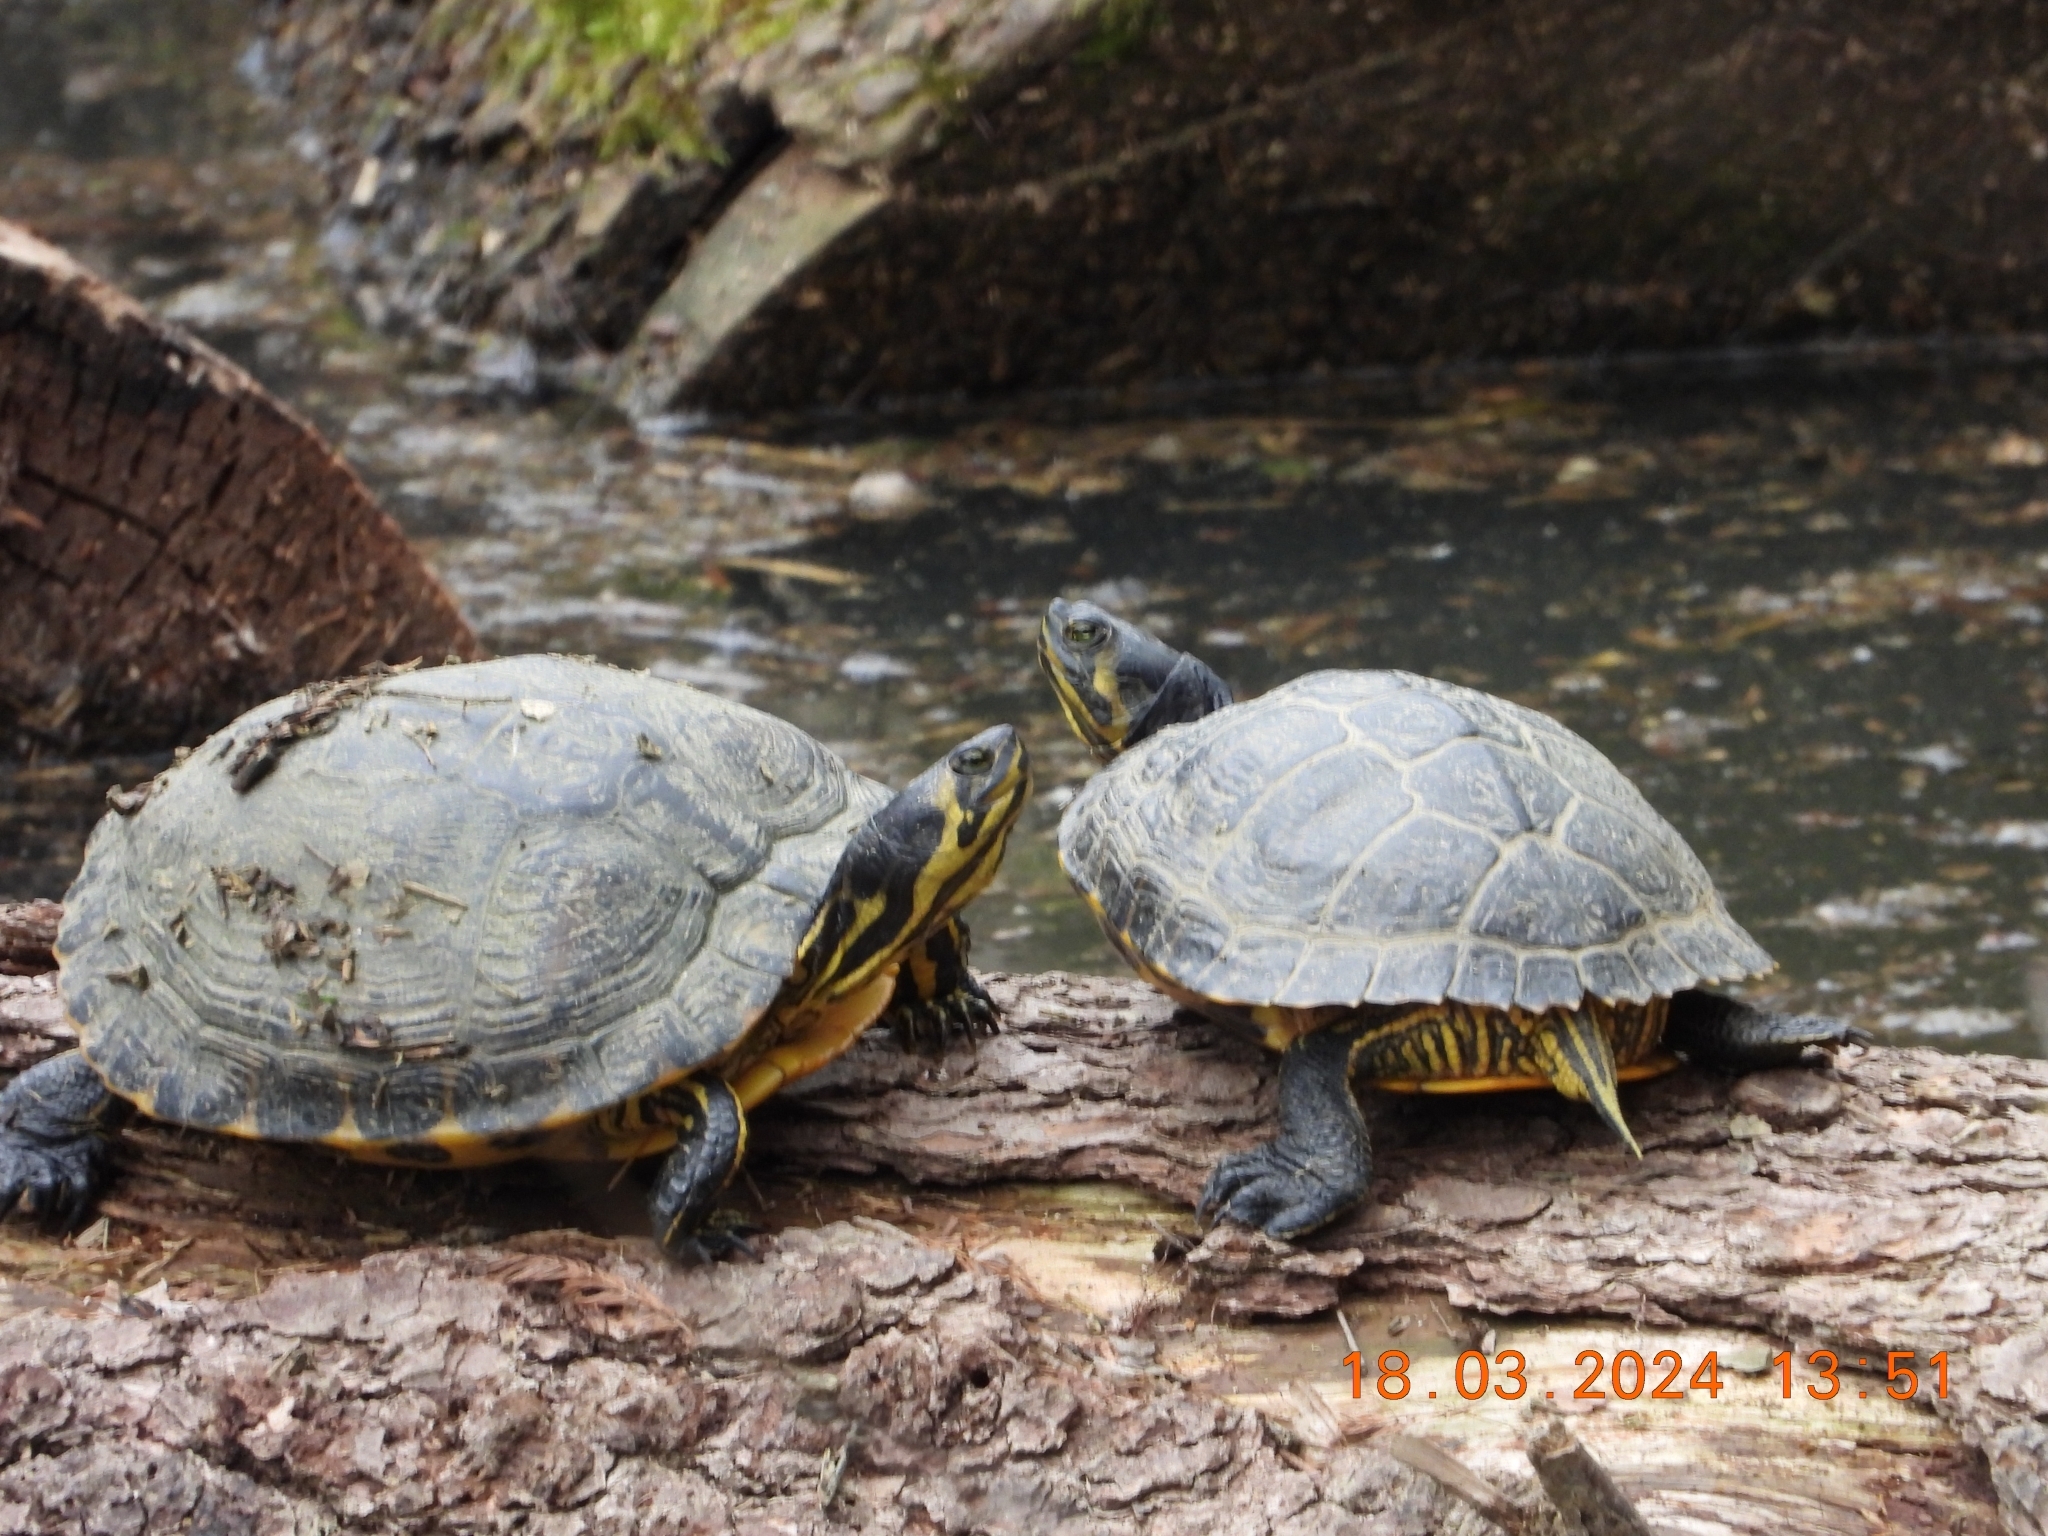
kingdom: Animalia
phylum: Chordata
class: Testudines
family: Emydidae
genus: Trachemys
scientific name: Trachemys scripta
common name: Slider
